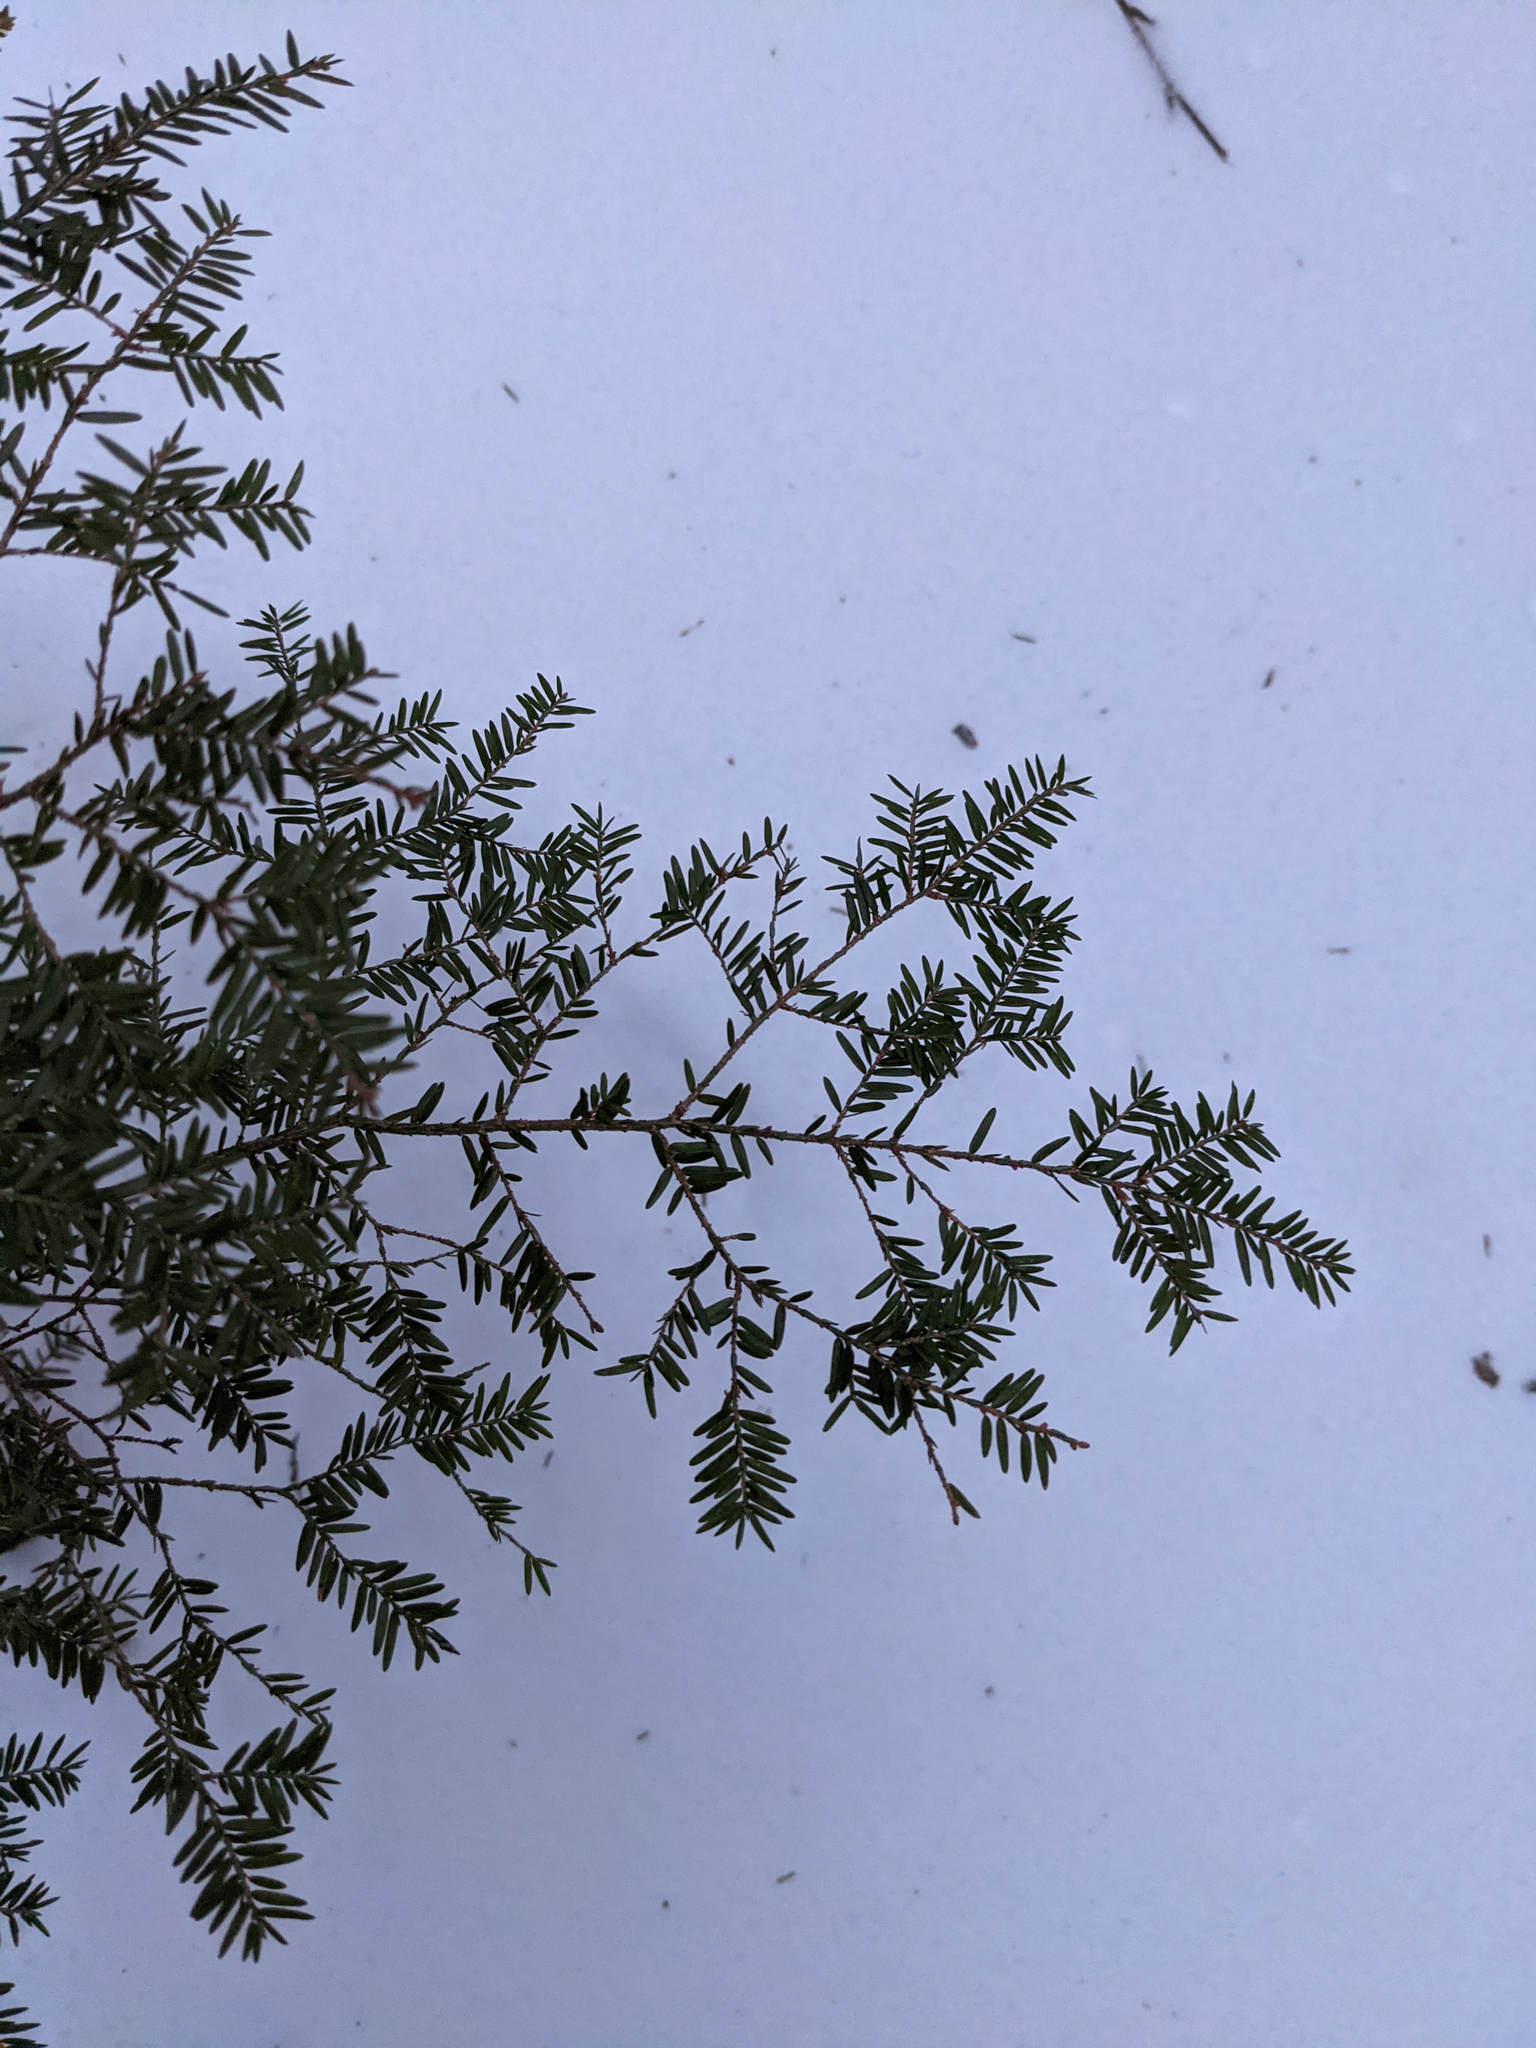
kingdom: Plantae
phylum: Tracheophyta
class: Pinopsida
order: Pinales
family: Pinaceae
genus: Tsuga
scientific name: Tsuga canadensis
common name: Eastern hemlock
